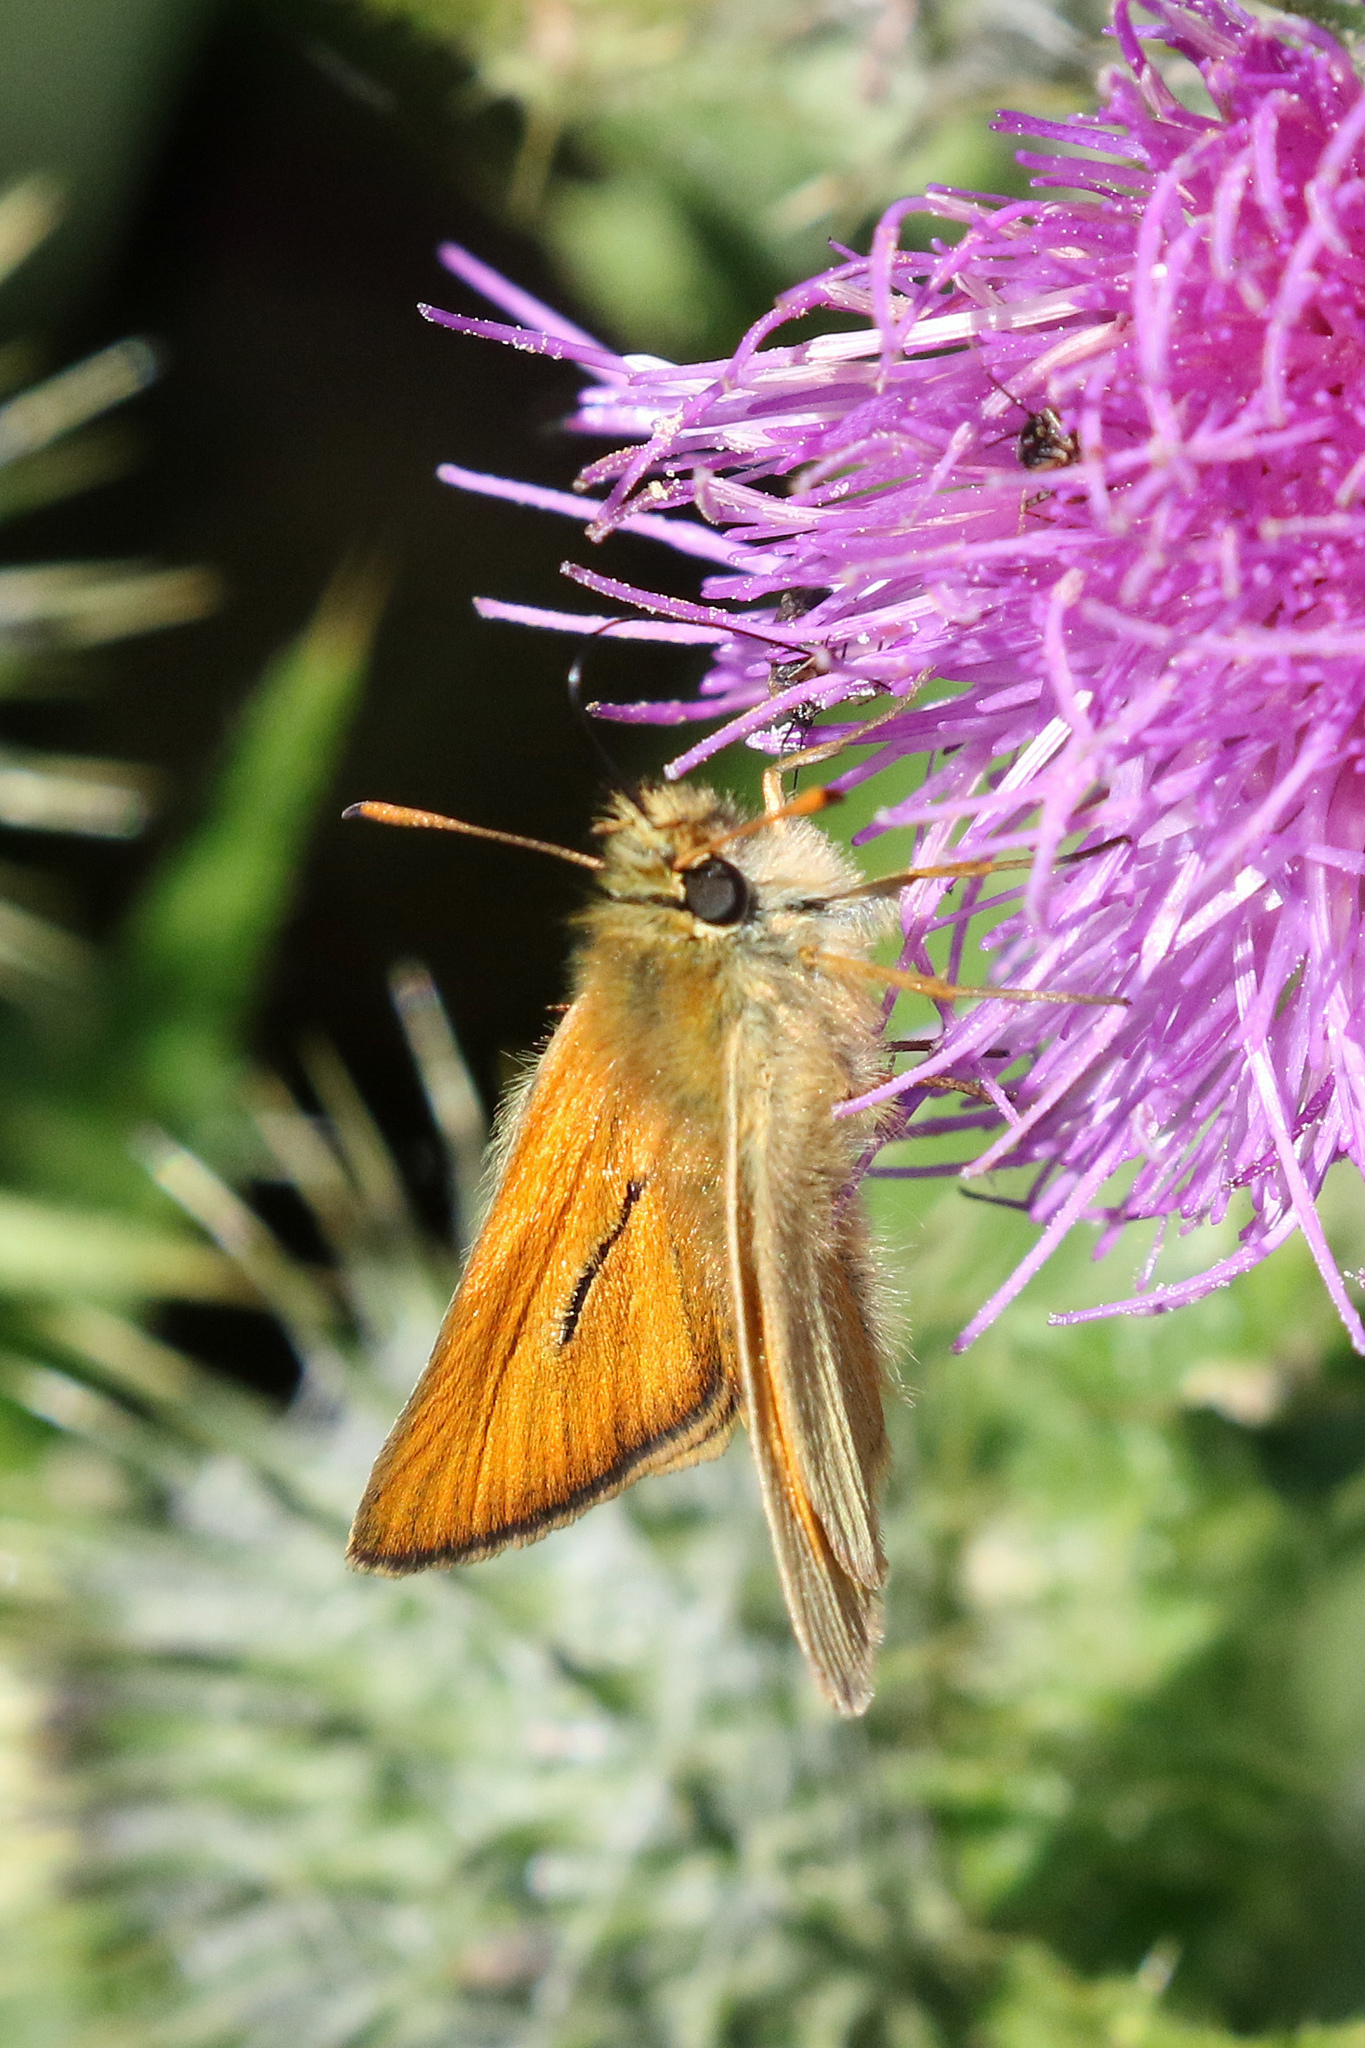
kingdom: Animalia
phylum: Arthropoda
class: Insecta
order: Lepidoptera
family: Hesperiidae
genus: Thymelicus
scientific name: Thymelicus sylvestris
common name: Small skipper
